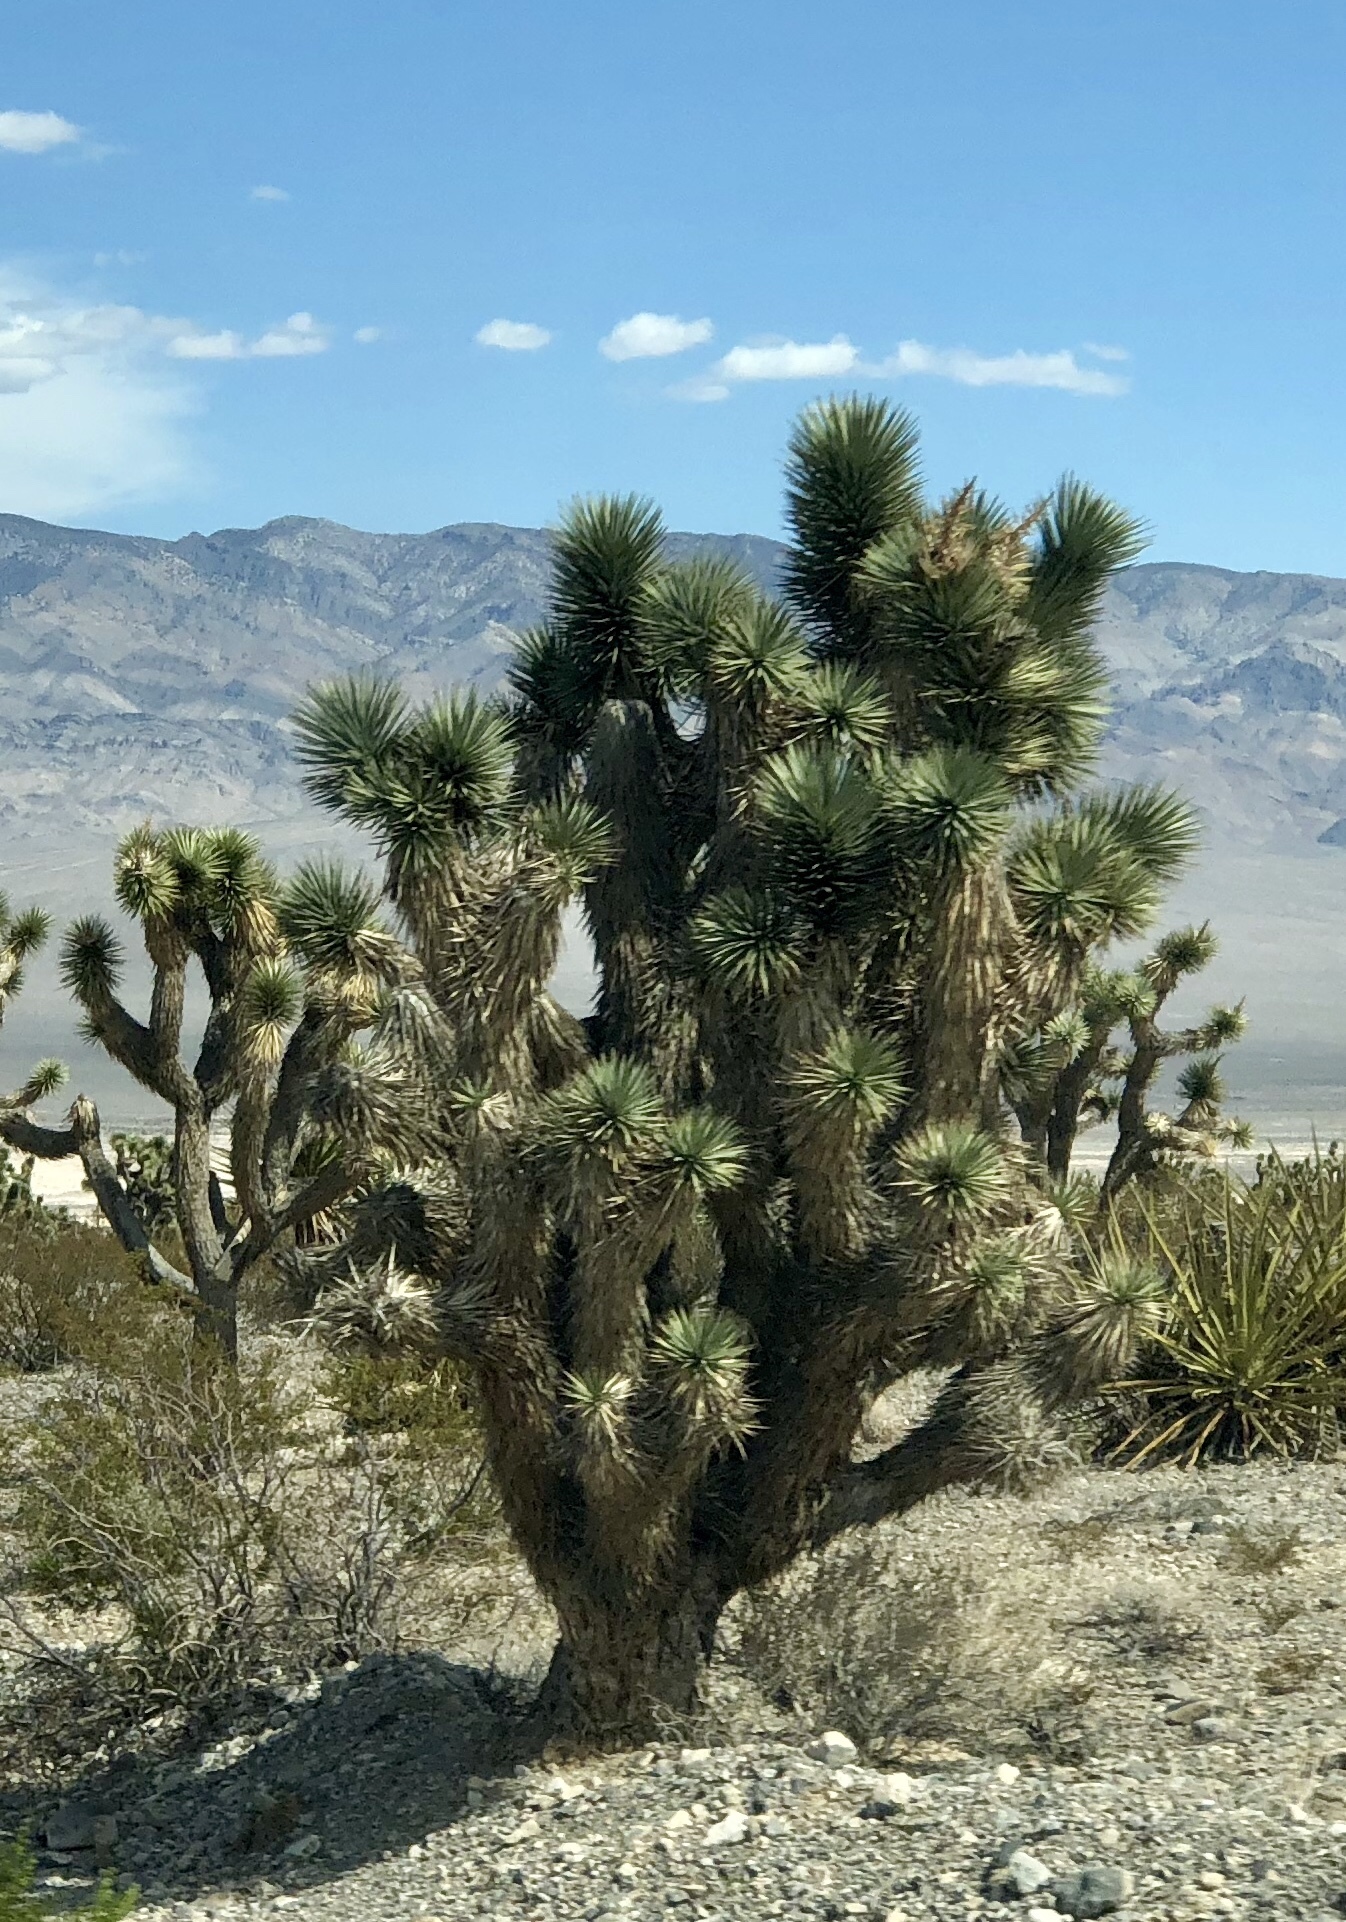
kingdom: Plantae
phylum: Tracheophyta
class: Liliopsida
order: Asparagales
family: Asparagaceae
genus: Yucca
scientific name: Yucca brevifolia
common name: Joshua tree
